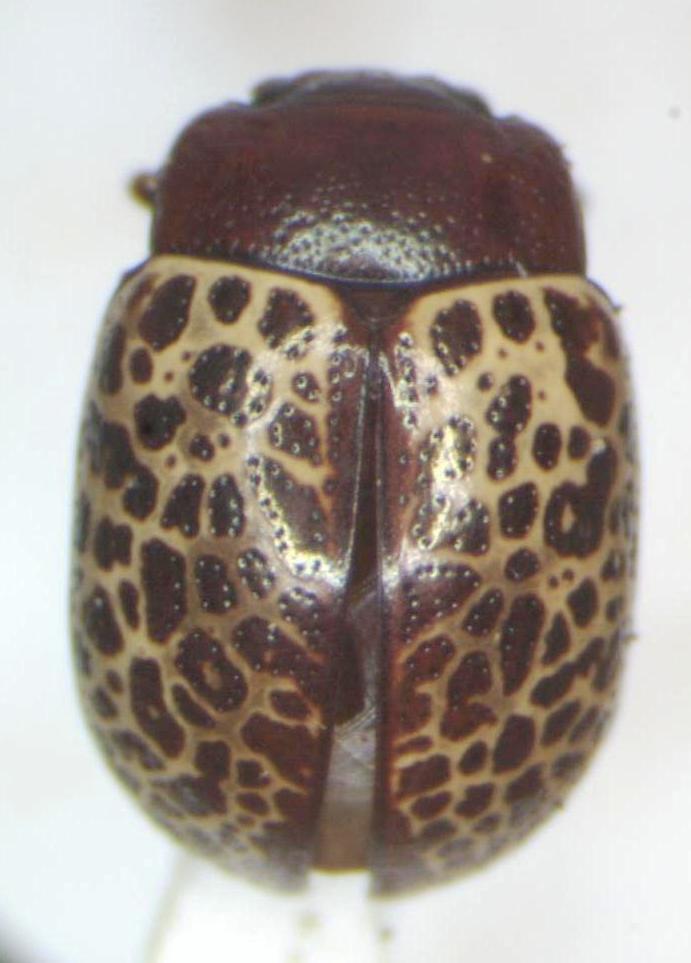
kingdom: Animalia
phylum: Arthropoda
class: Insecta
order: Coleoptera
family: Chrysomelidae
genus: Calligrapha
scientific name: Calligrapha
